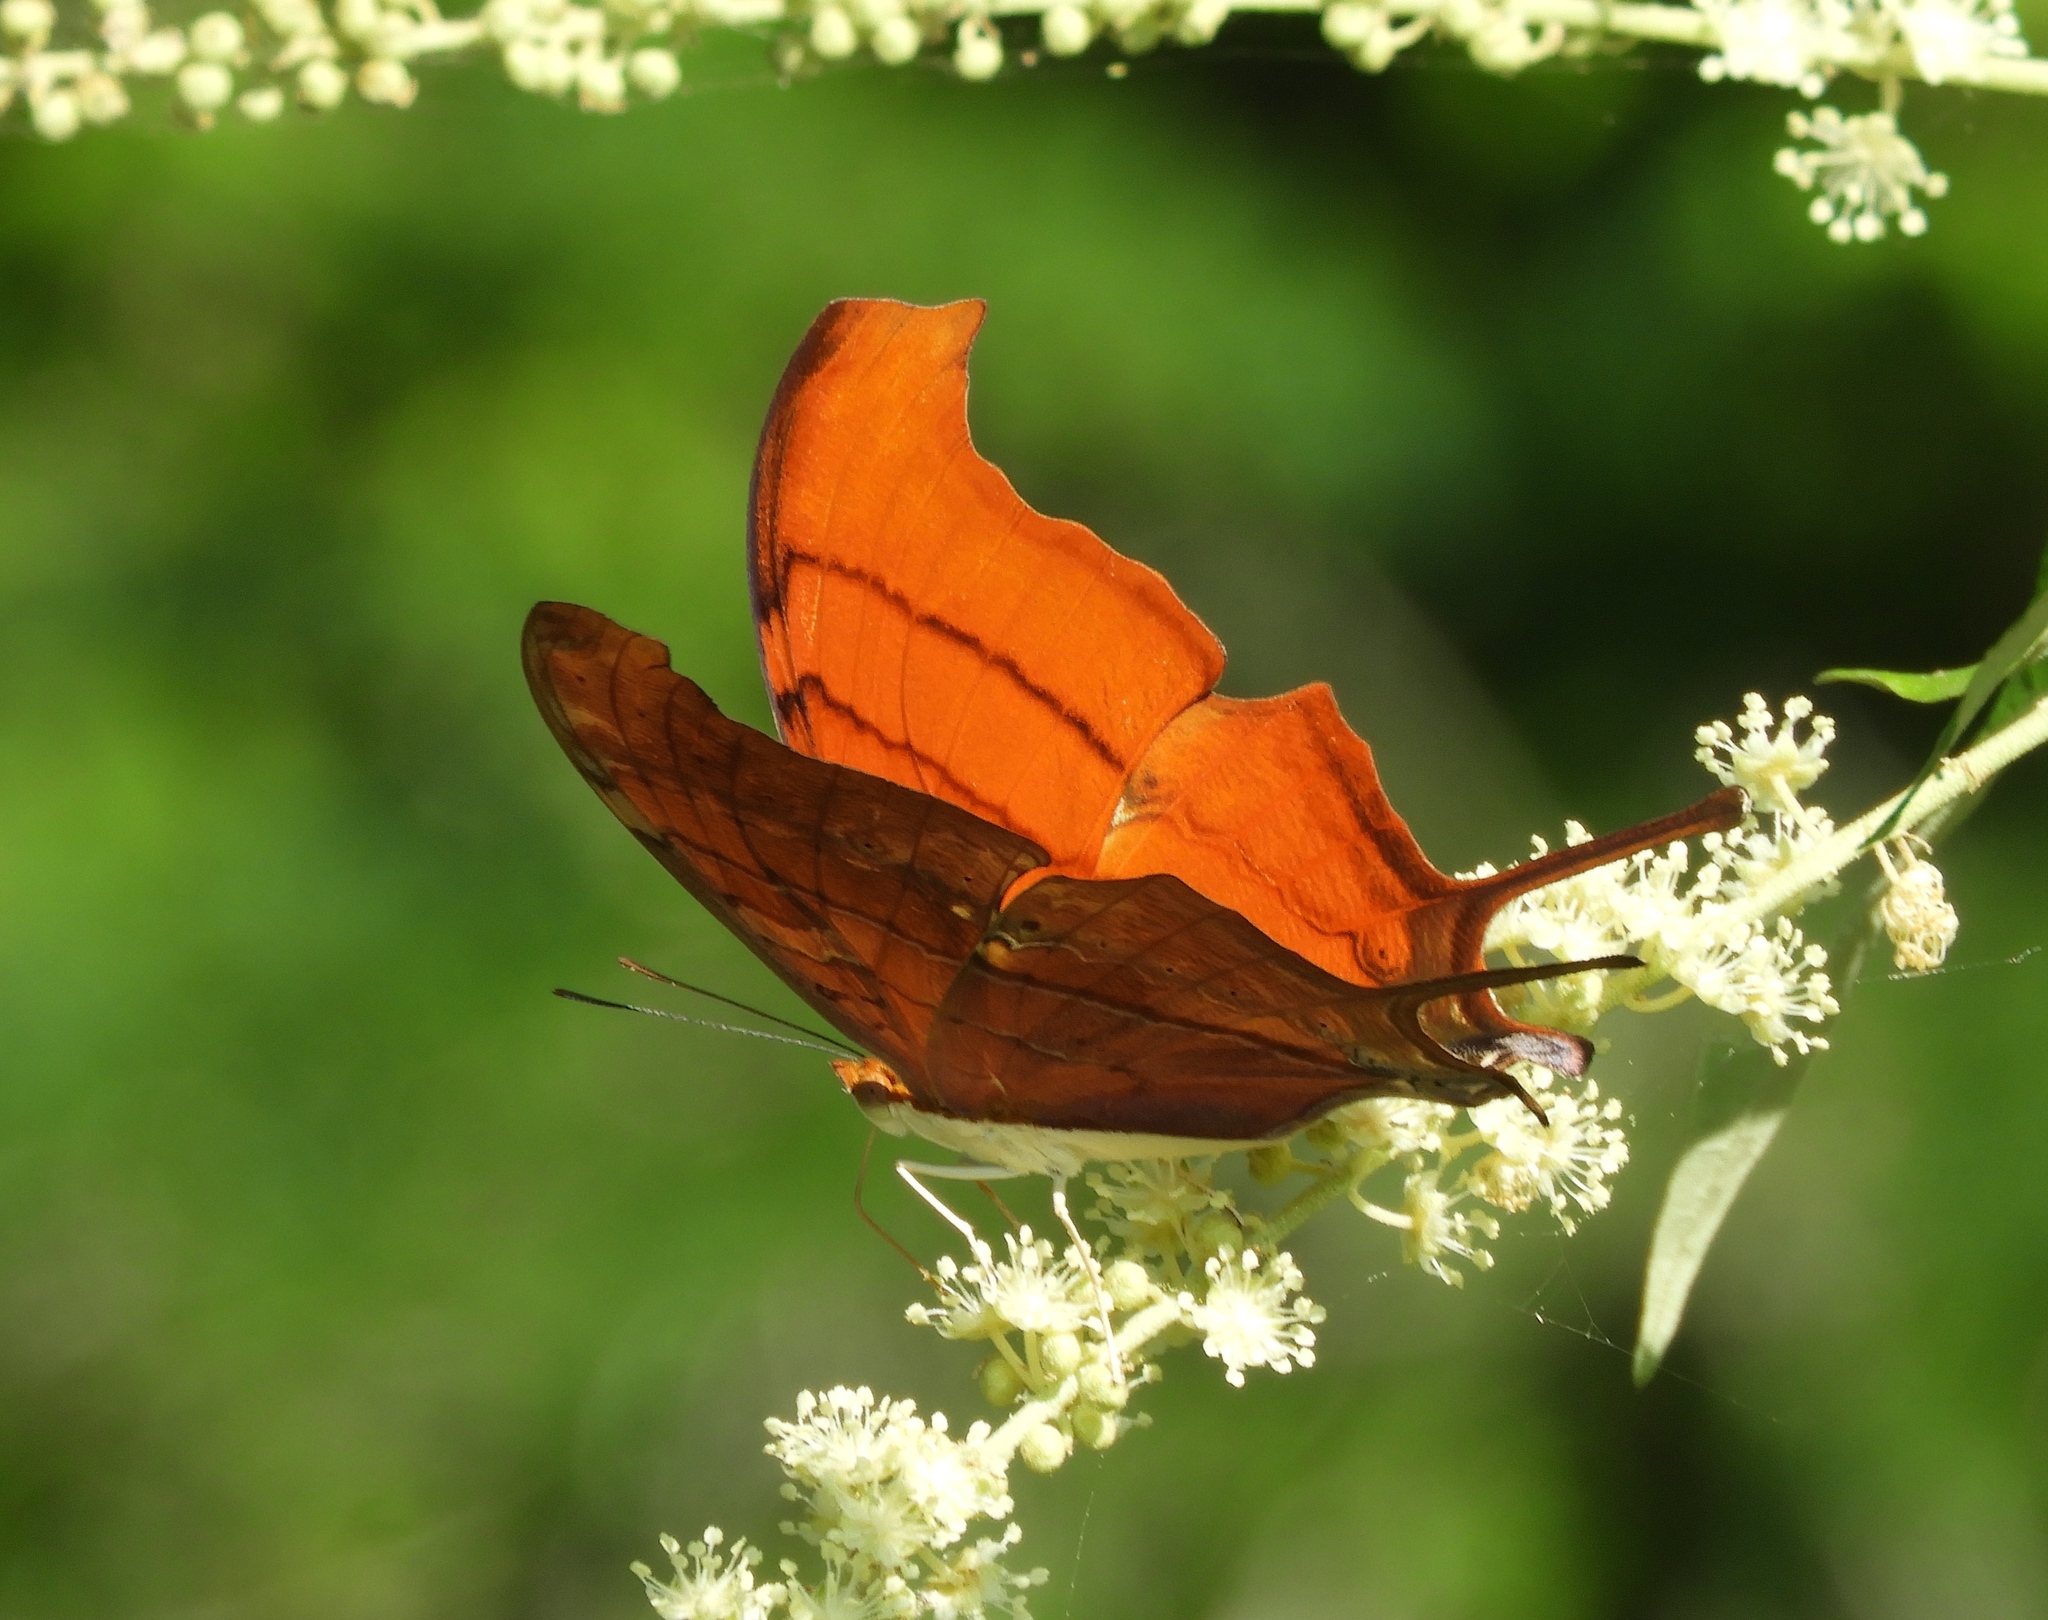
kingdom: Animalia
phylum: Arthropoda
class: Insecta
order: Lepidoptera
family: Nymphalidae
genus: Marpesia
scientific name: Marpesia petreus
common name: Red dagger wing
